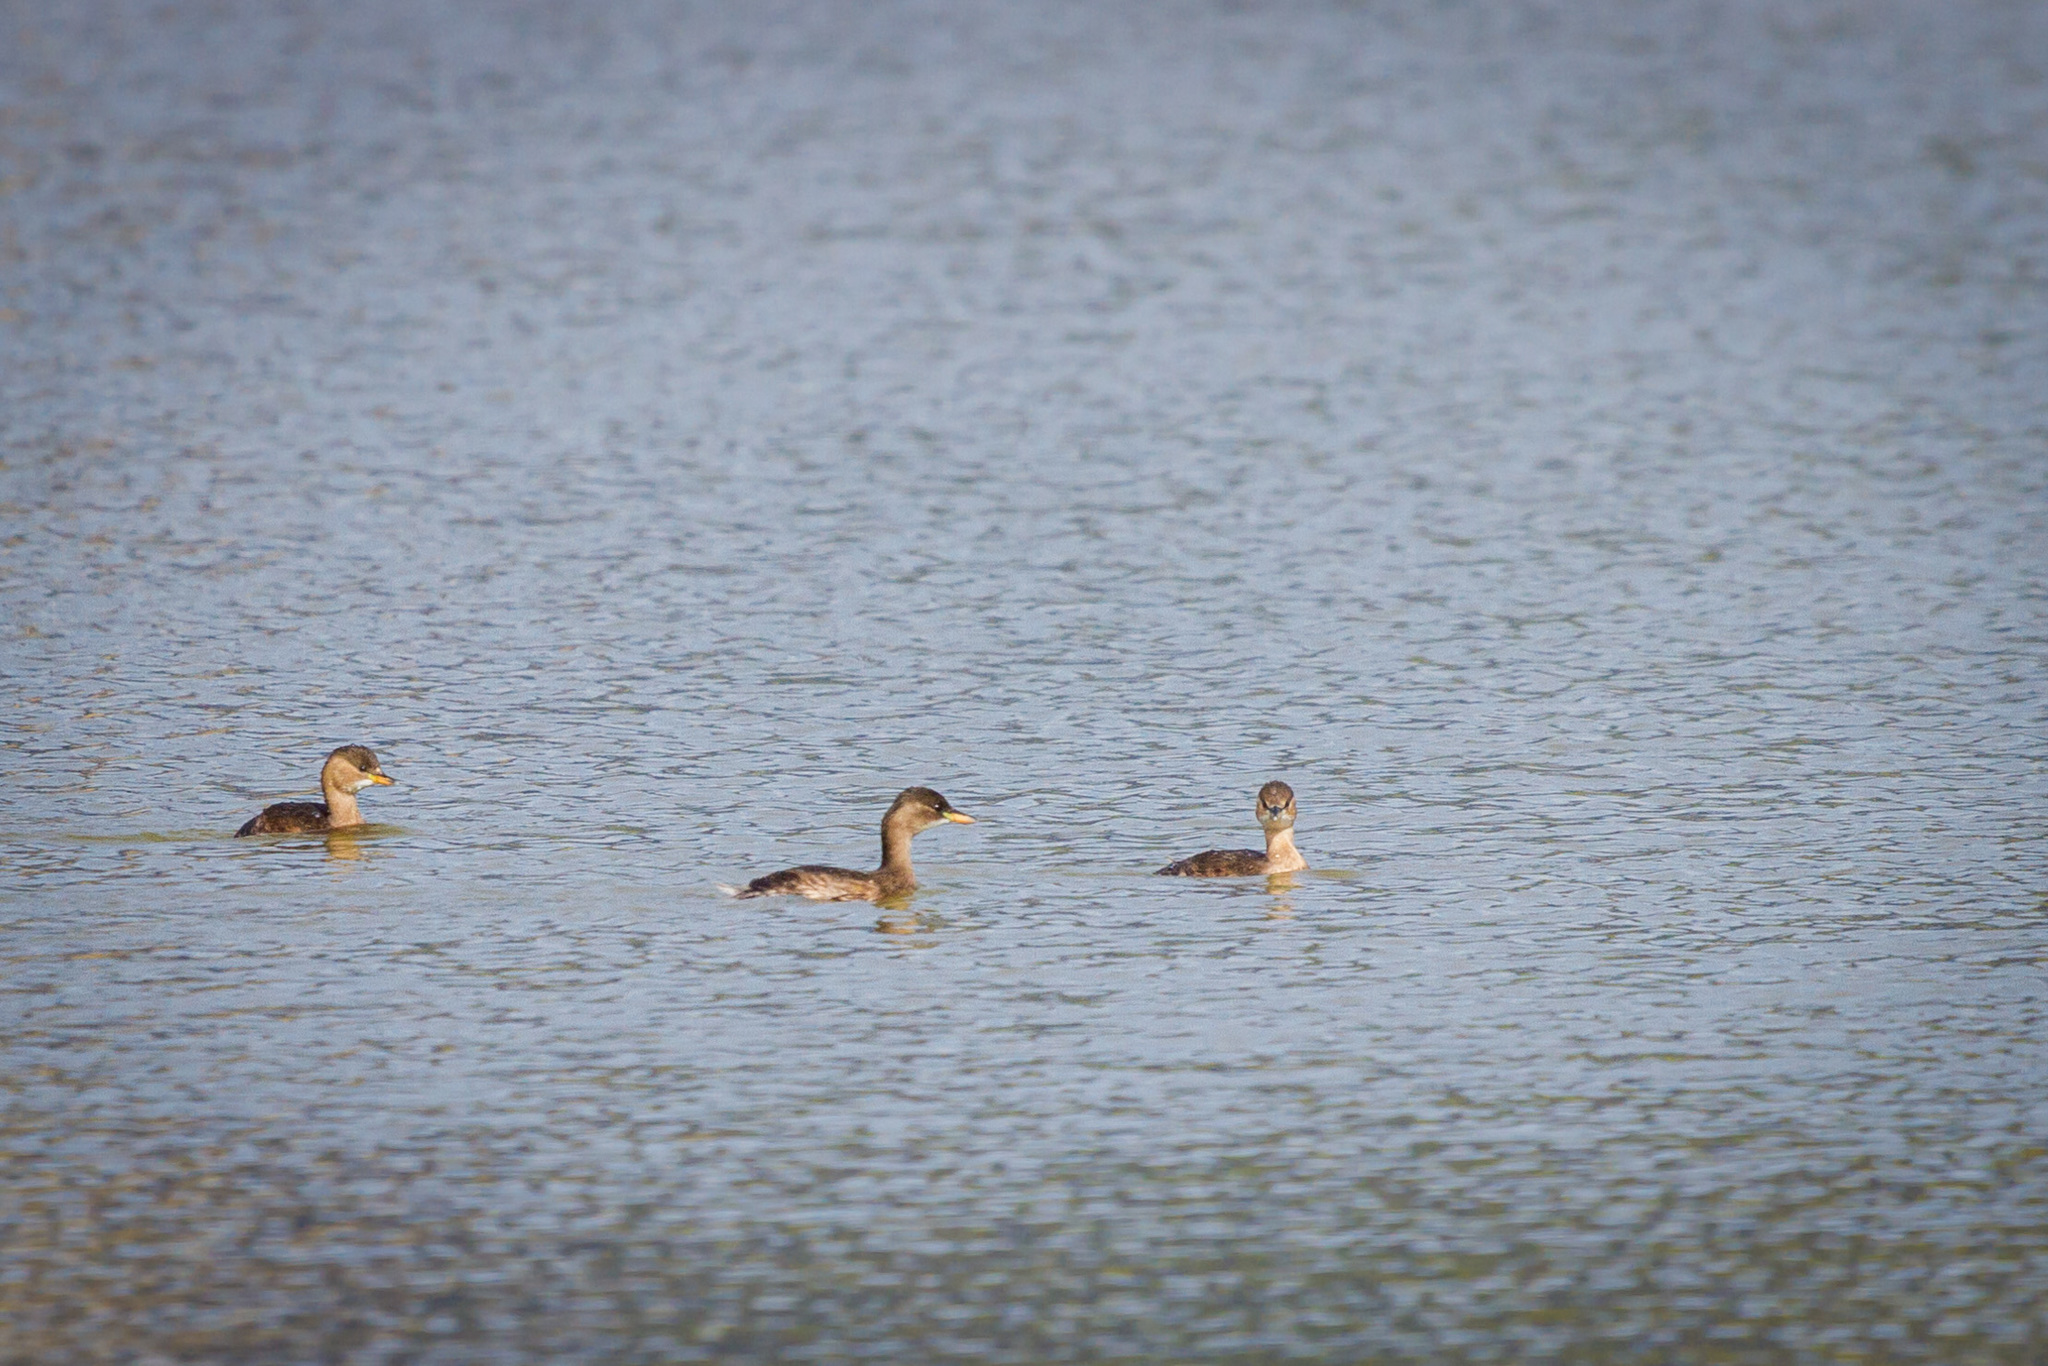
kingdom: Animalia
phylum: Chordata
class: Aves
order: Podicipediformes
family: Podicipedidae
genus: Tachybaptus
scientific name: Tachybaptus ruficollis
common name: Little grebe
